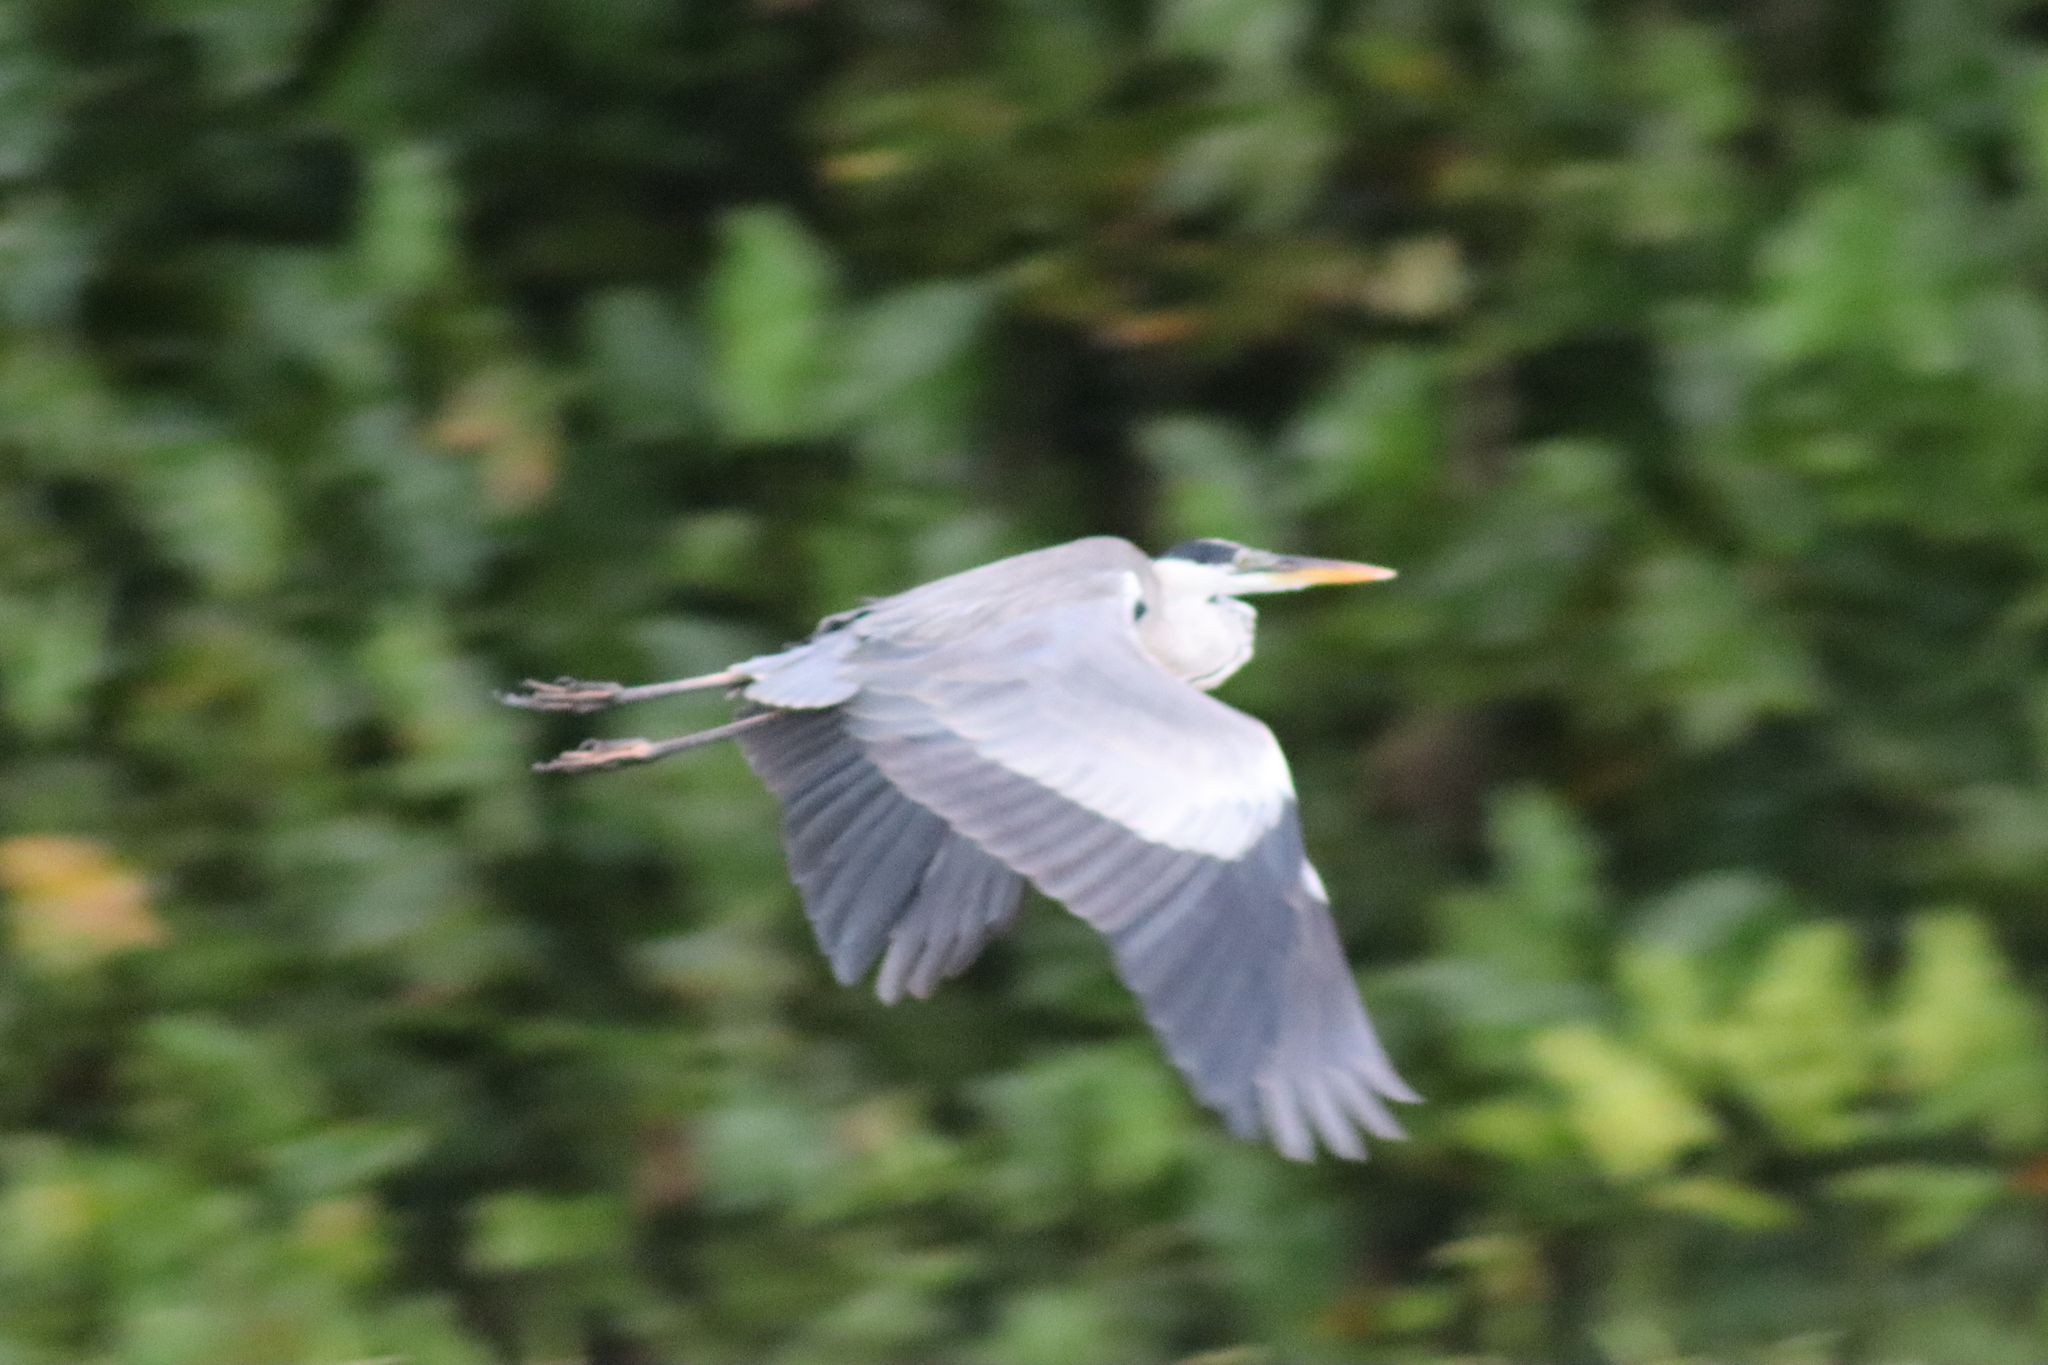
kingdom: Animalia
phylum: Chordata
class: Aves
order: Pelecaniformes
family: Ardeidae
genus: Ardea
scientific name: Ardea cocoi
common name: Cocoi heron
